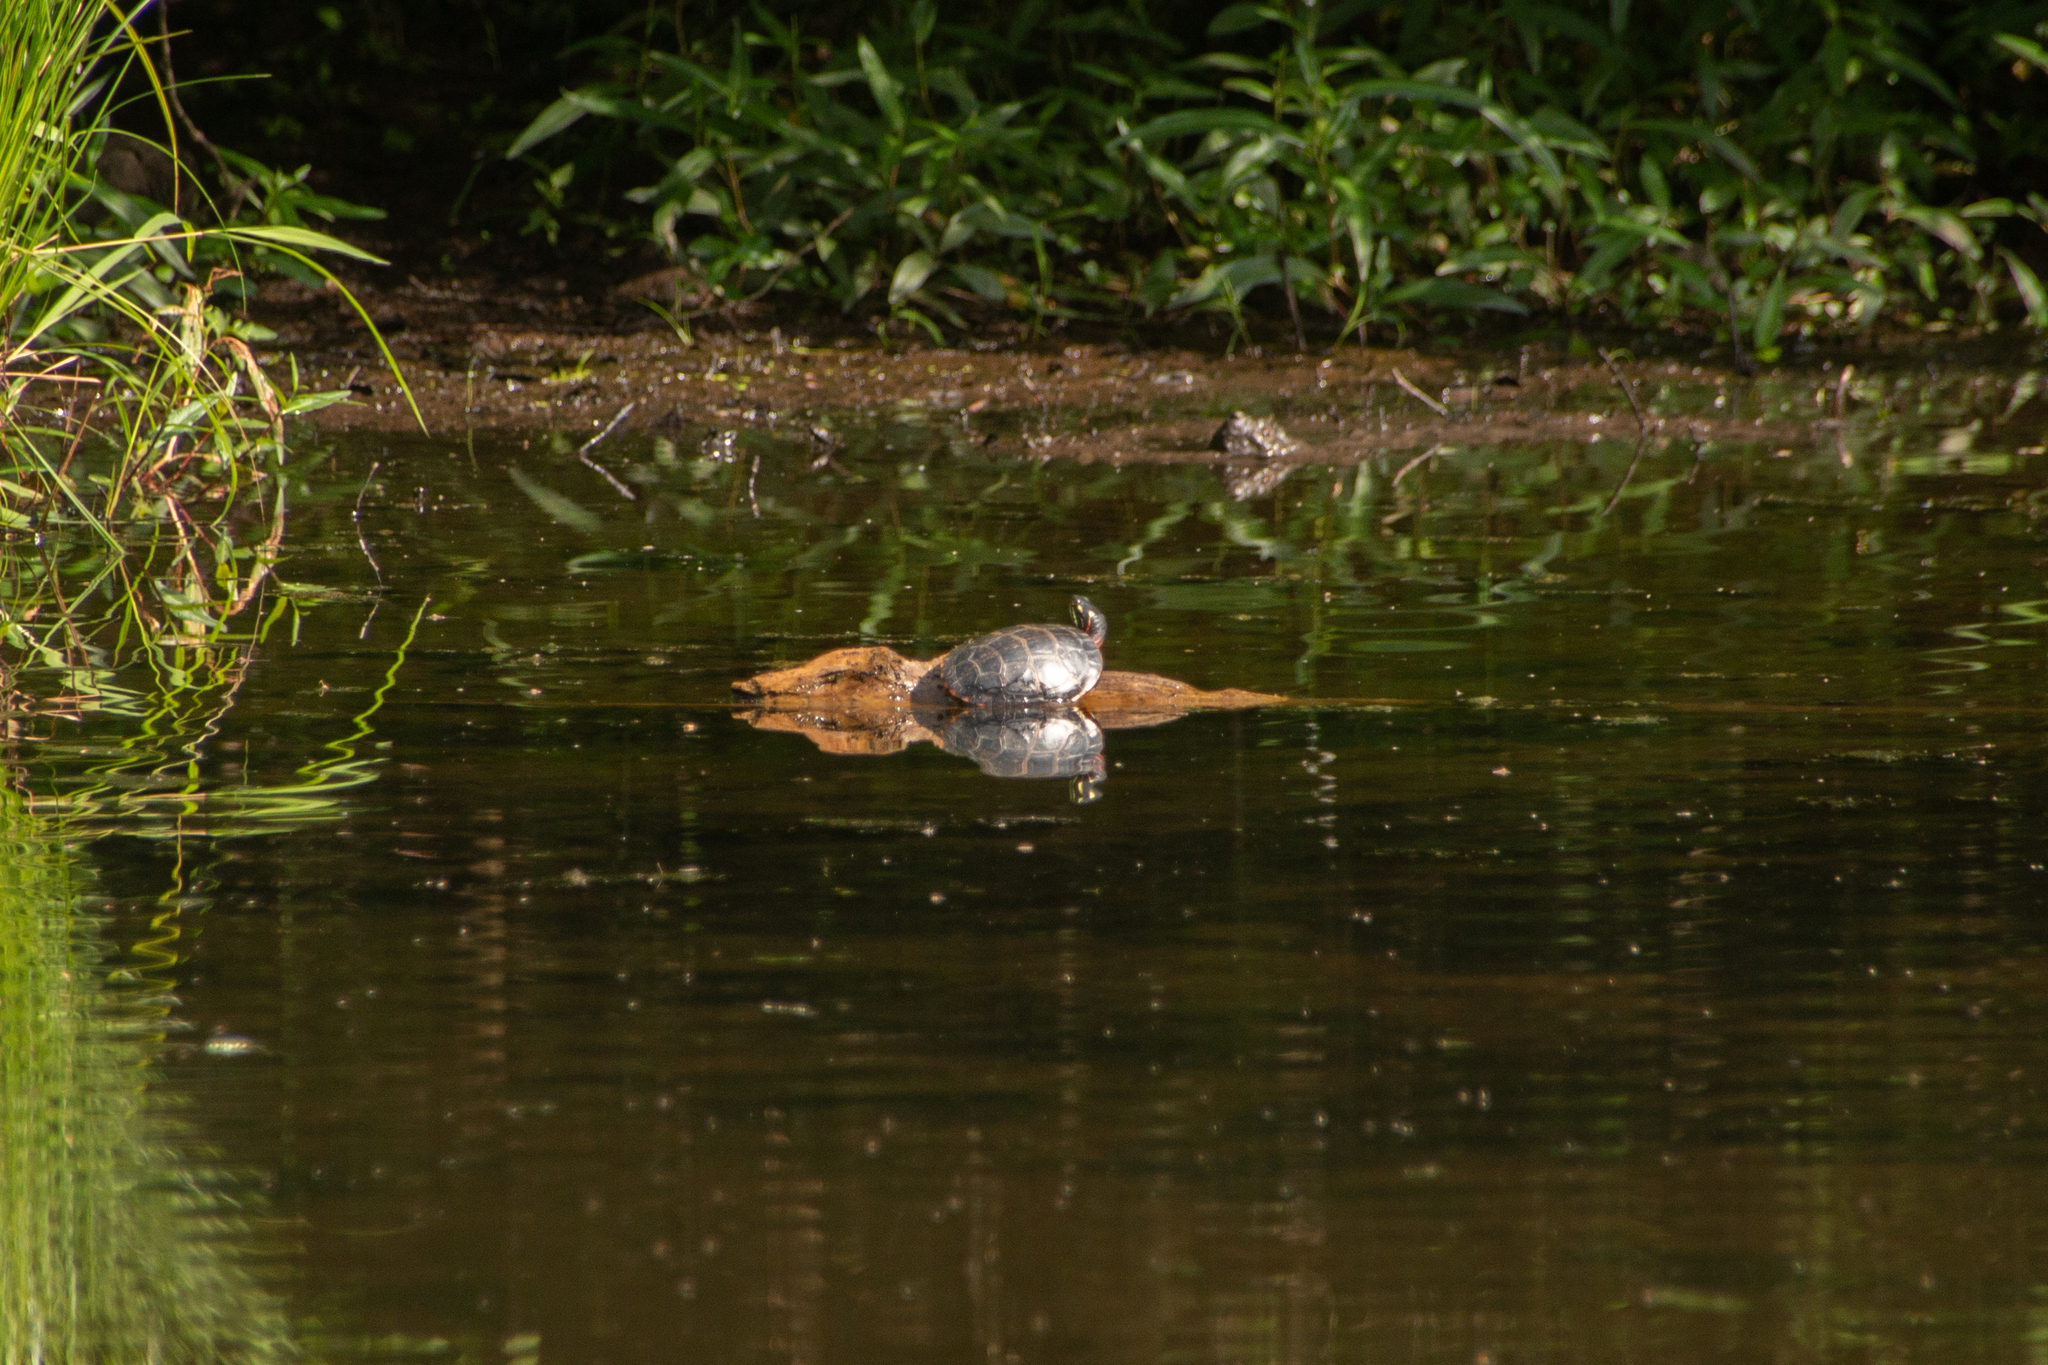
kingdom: Animalia
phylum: Chordata
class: Testudines
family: Emydidae
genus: Chrysemys
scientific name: Chrysemys picta
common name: Painted turtle
